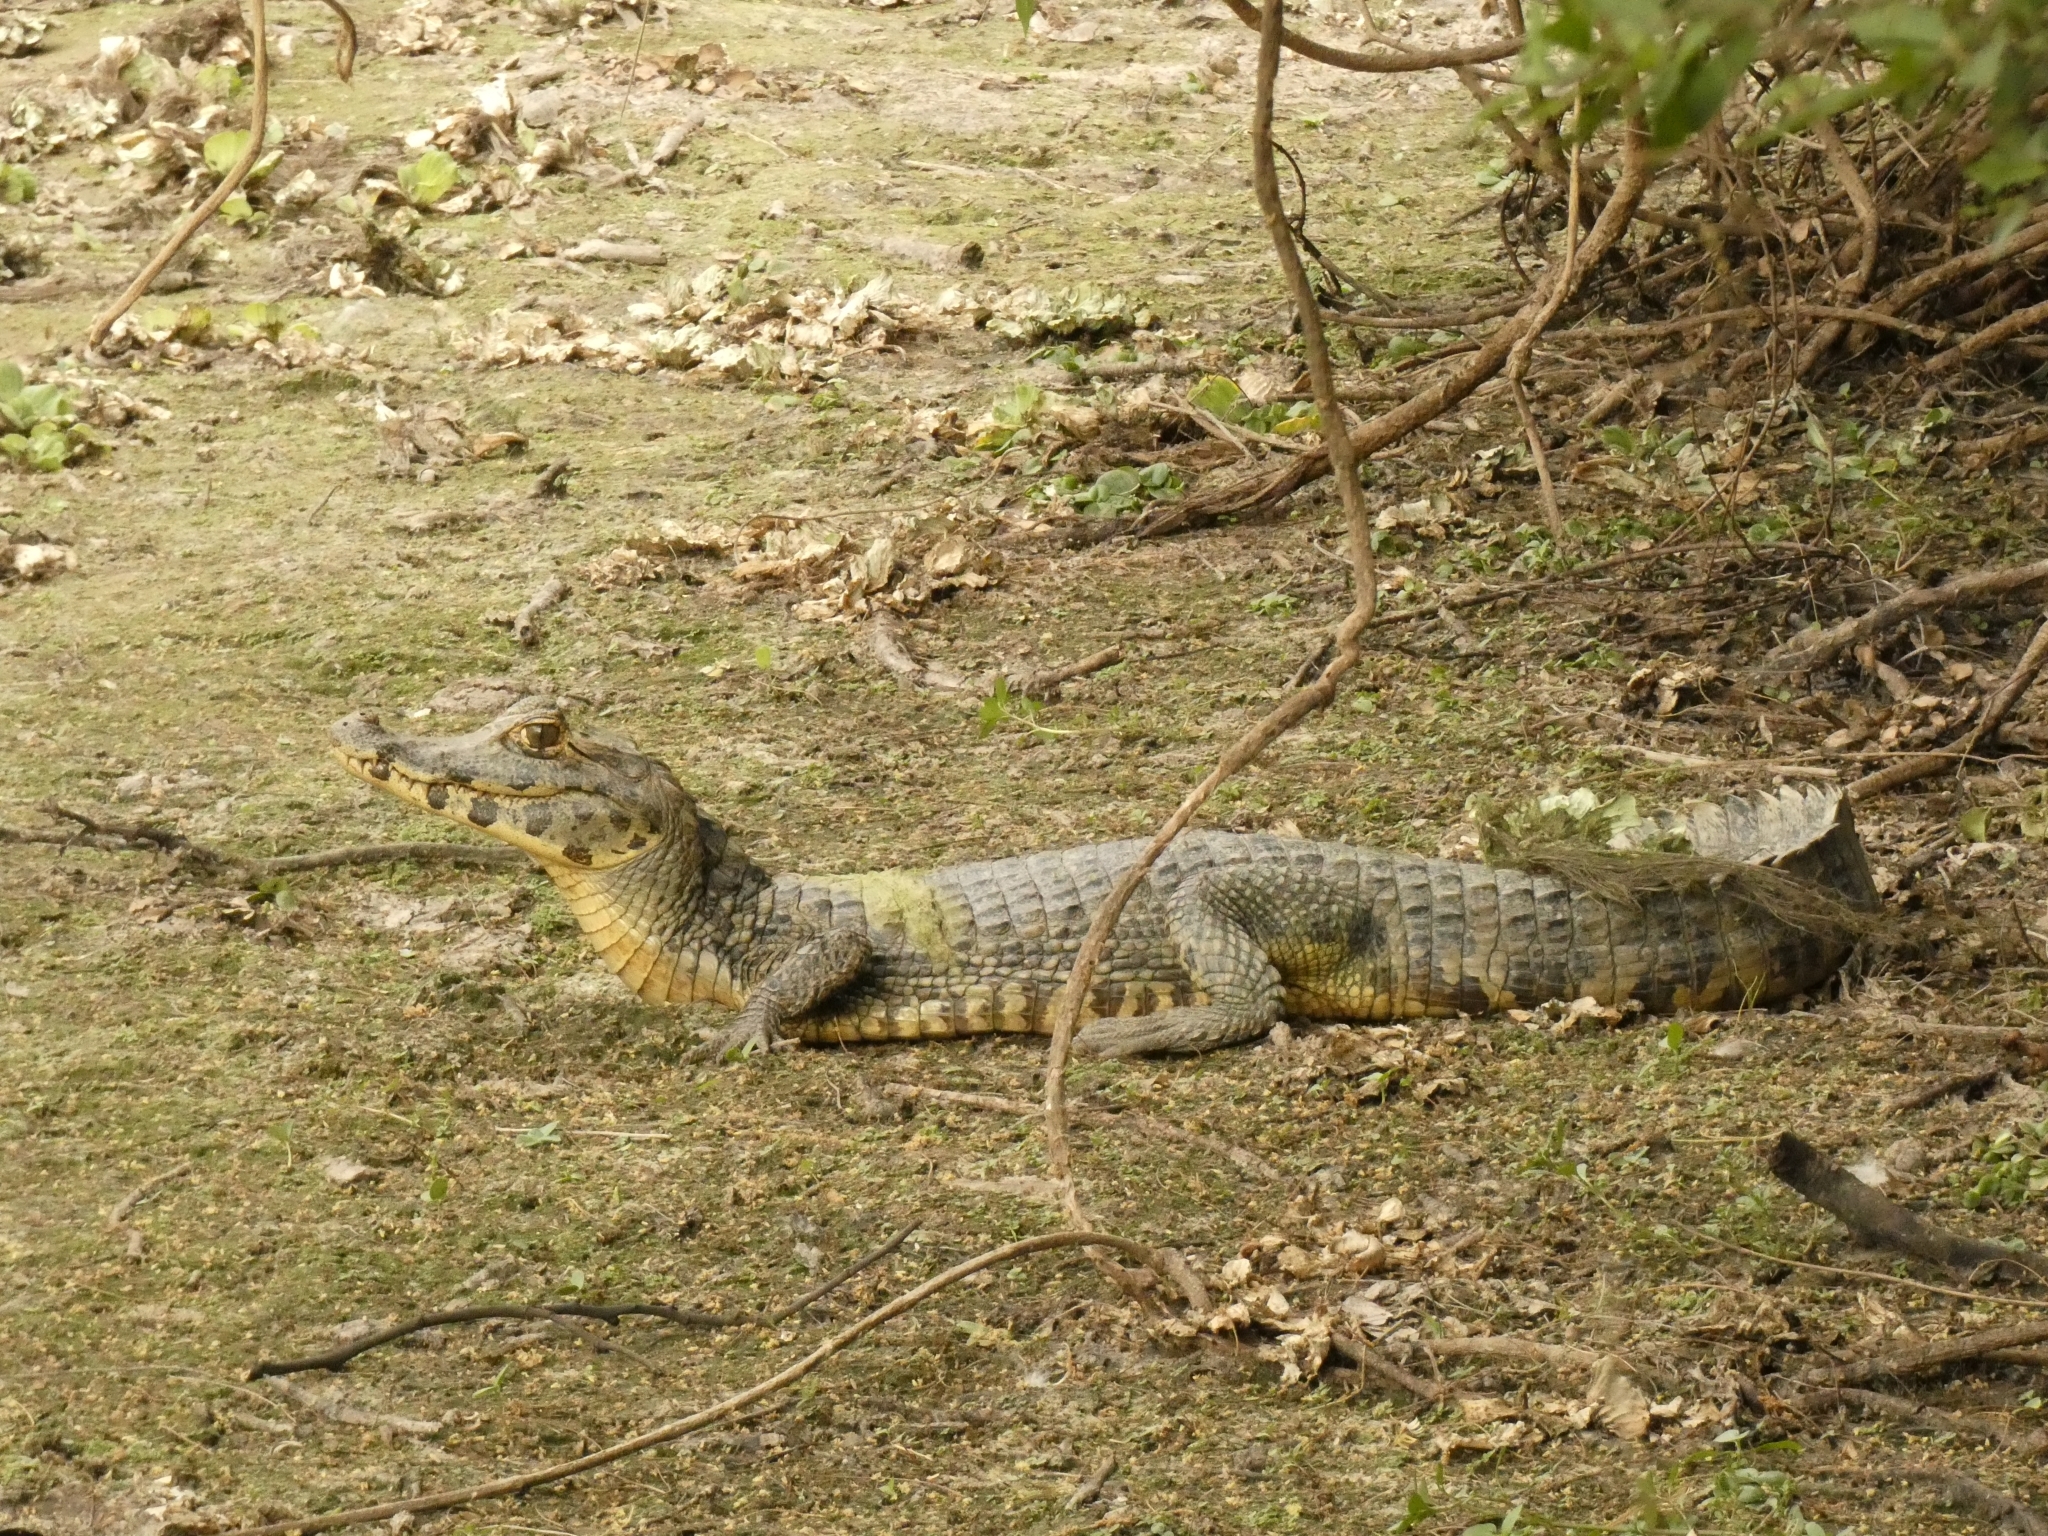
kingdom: Animalia
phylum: Chordata
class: Crocodylia
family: Alligatoridae
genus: Caiman
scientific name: Caiman yacare
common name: Yacare caiman
